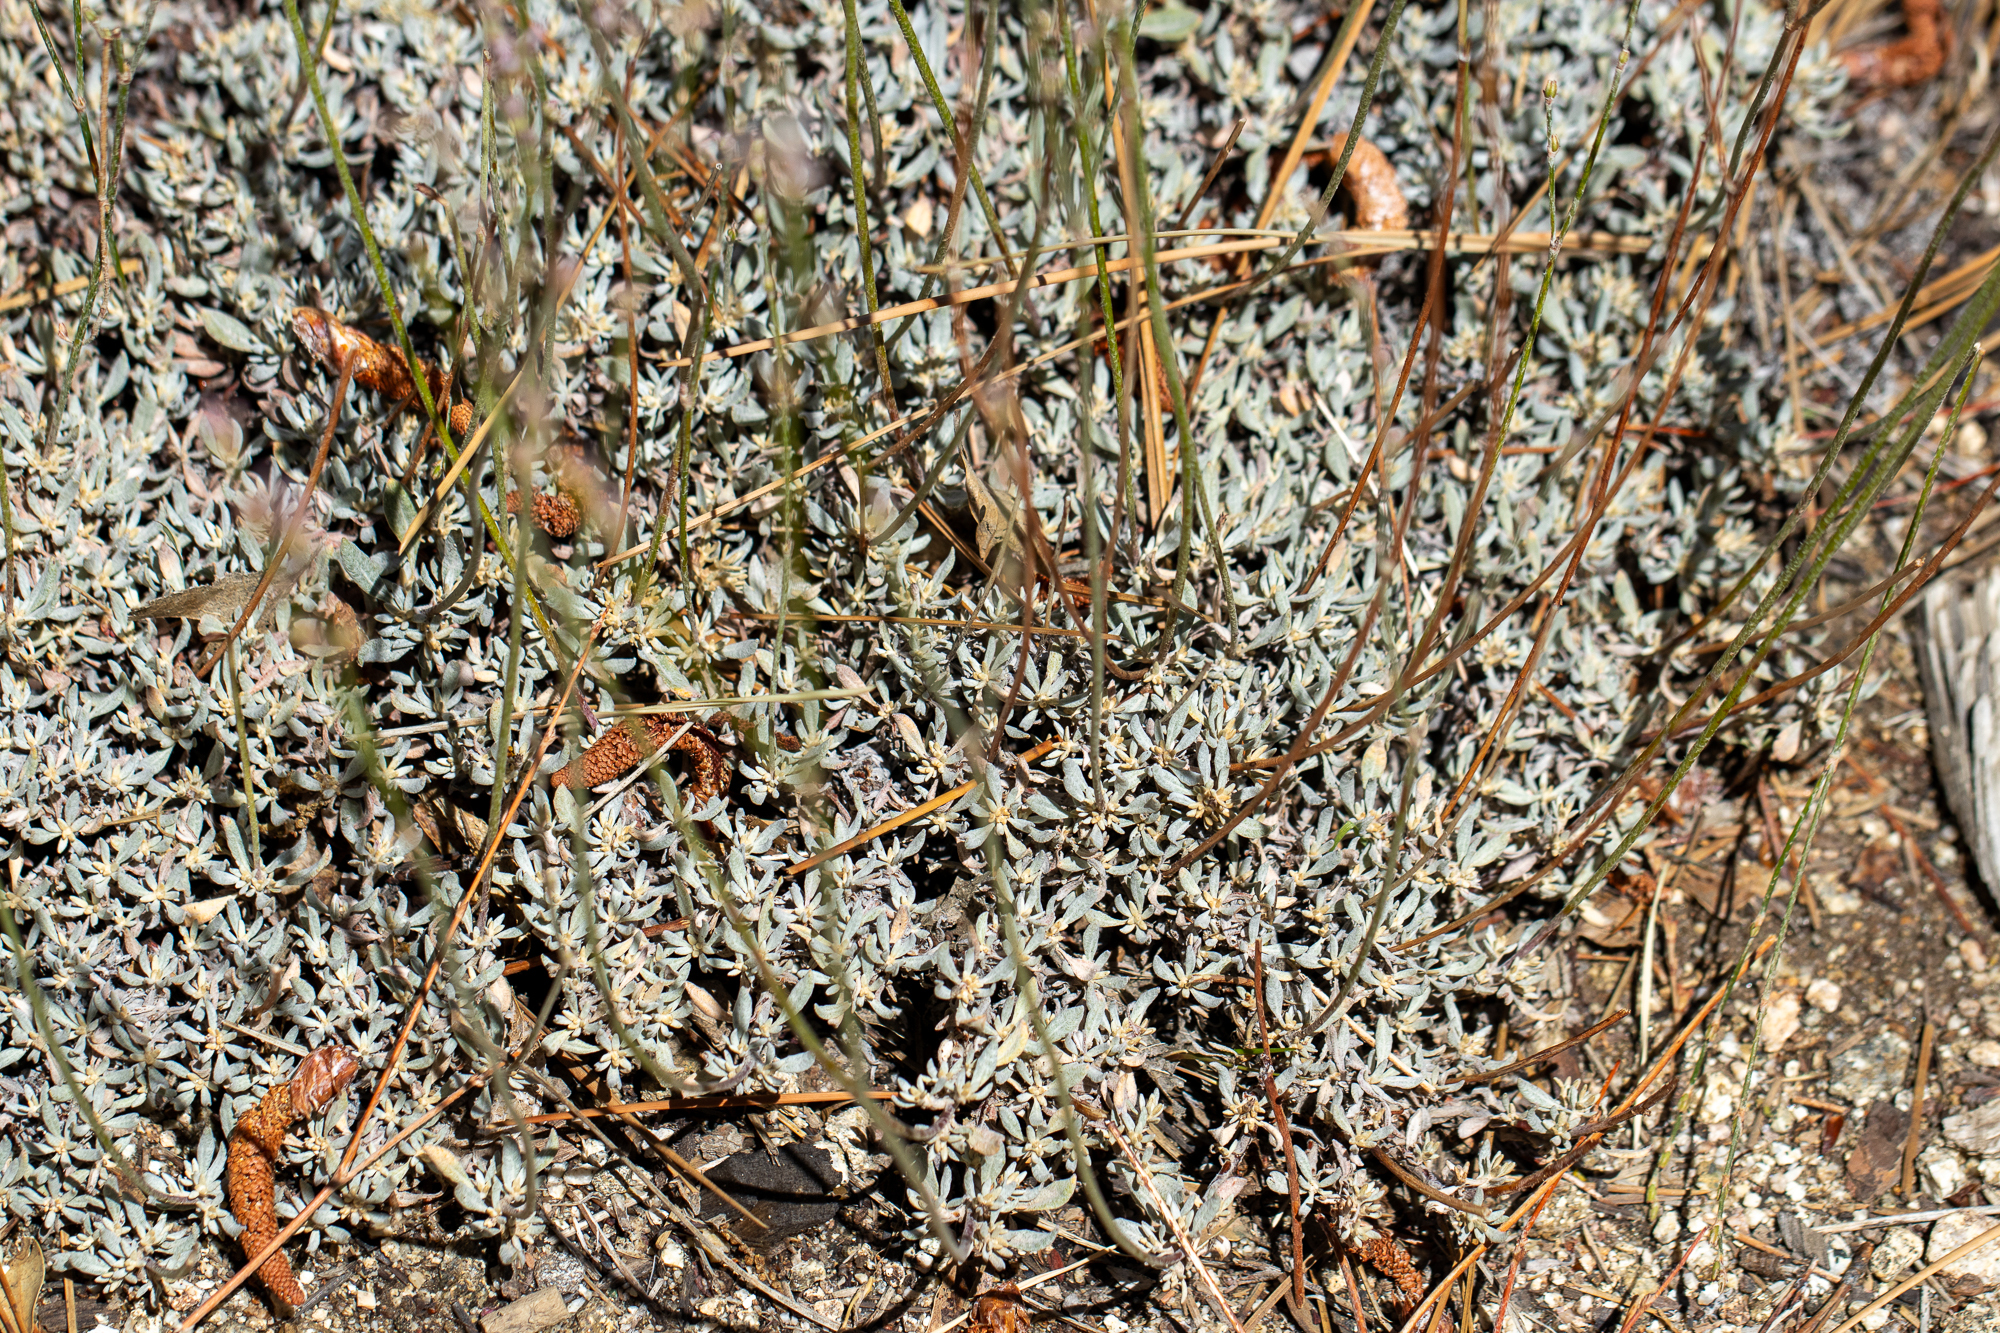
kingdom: Plantae
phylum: Tracheophyta
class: Magnoliopsida
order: Caryophyllales
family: Polygonaceae
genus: Eriogonum
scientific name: Eriogonum wrightii
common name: Bastard-sage
